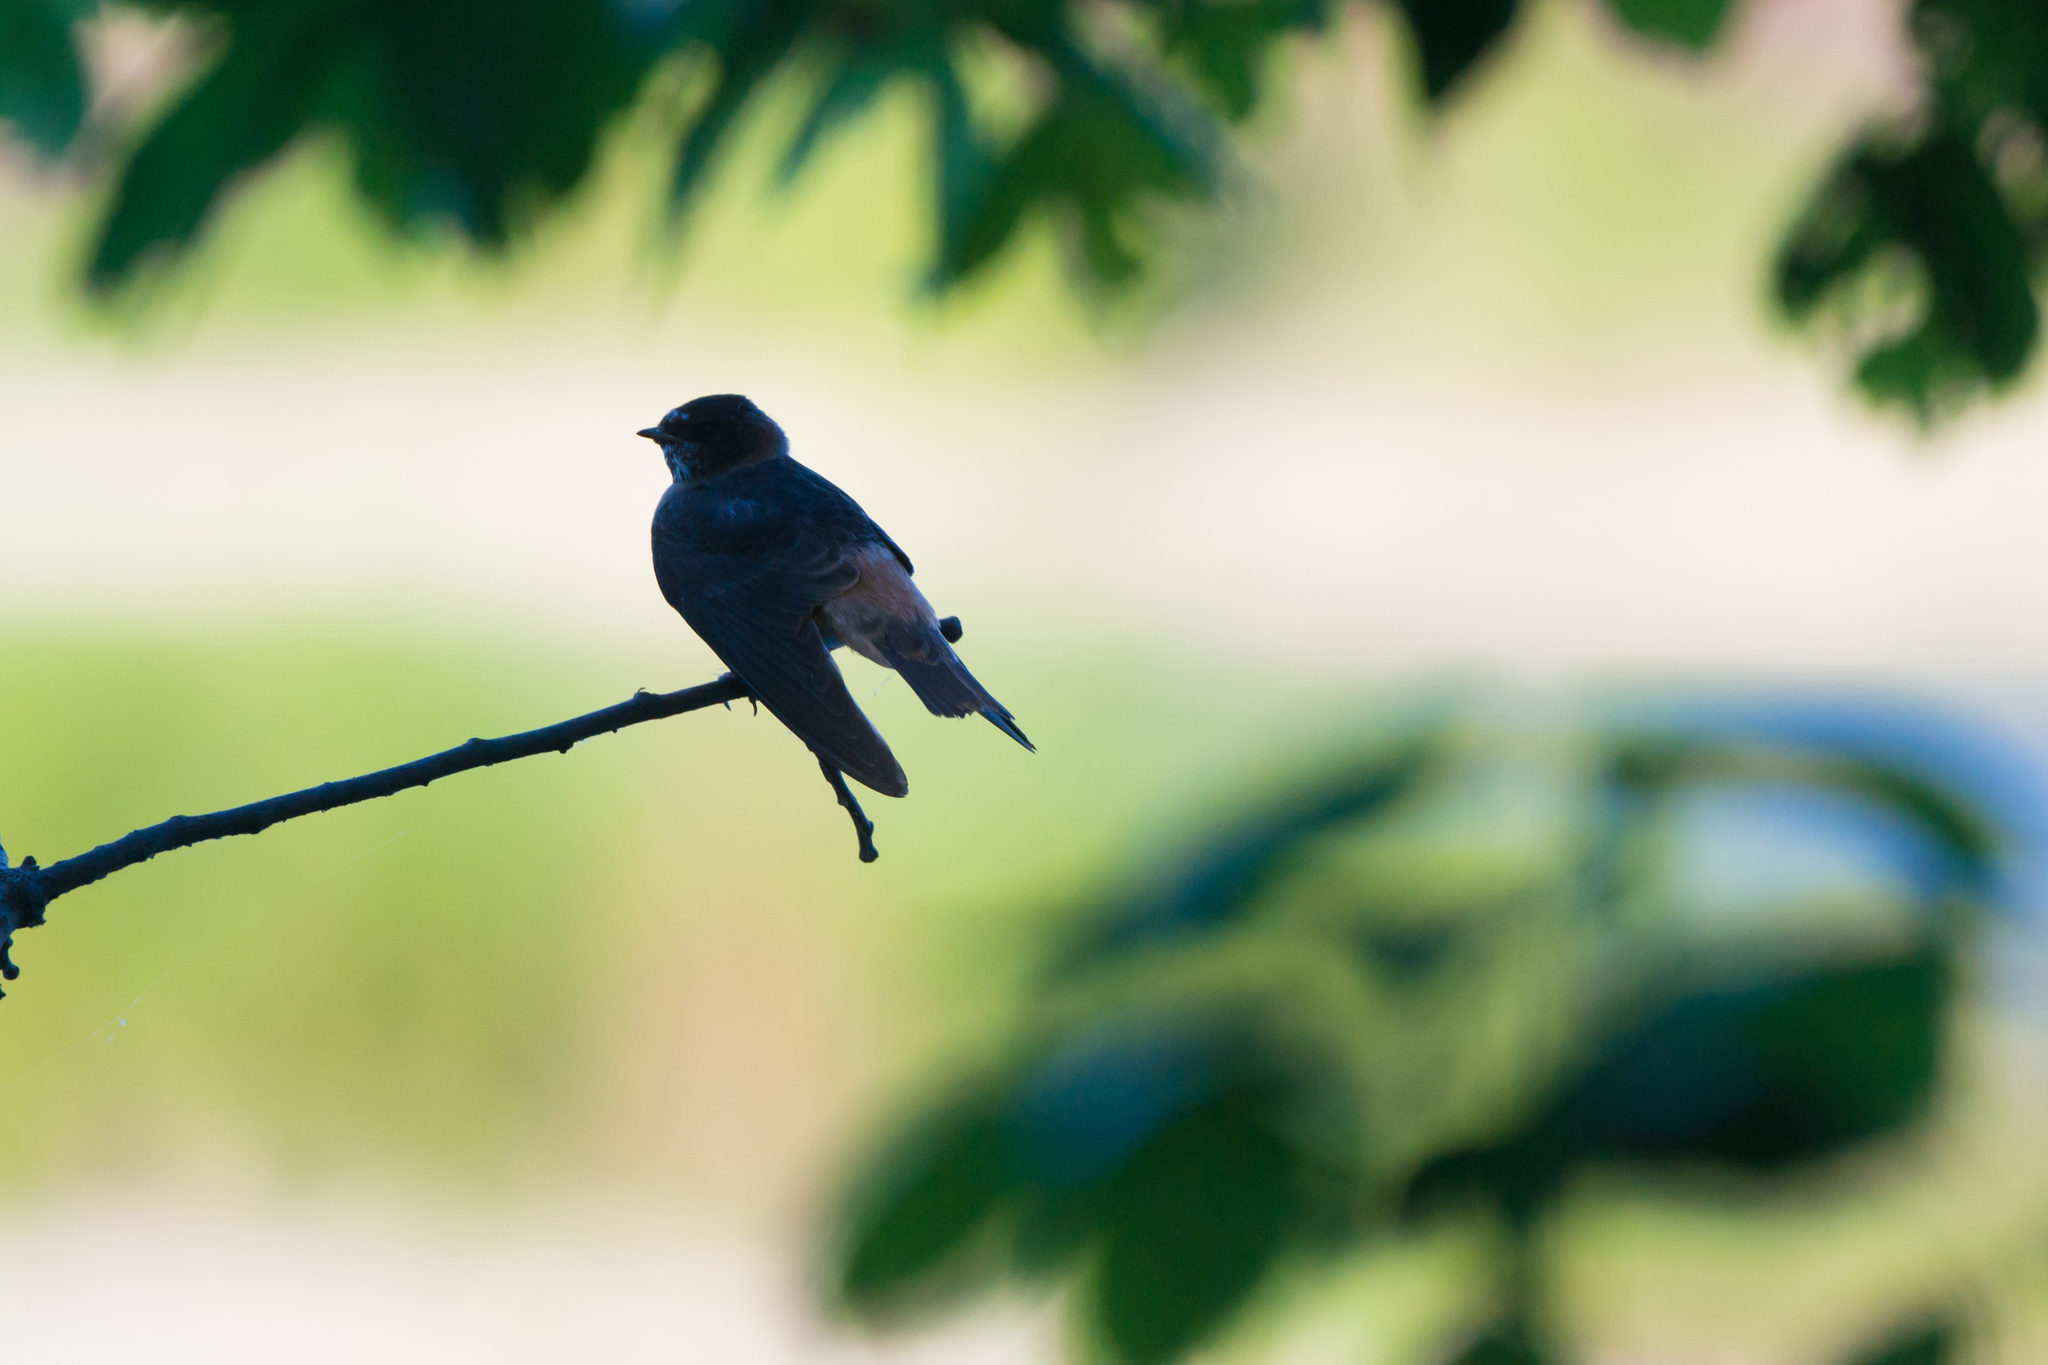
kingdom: Animalia
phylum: Chordata
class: Aves
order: Passeriformes
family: Hirundinidae
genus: Petrochelidon
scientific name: Petrochelidon pyrrhonota
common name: American cliff swallow
